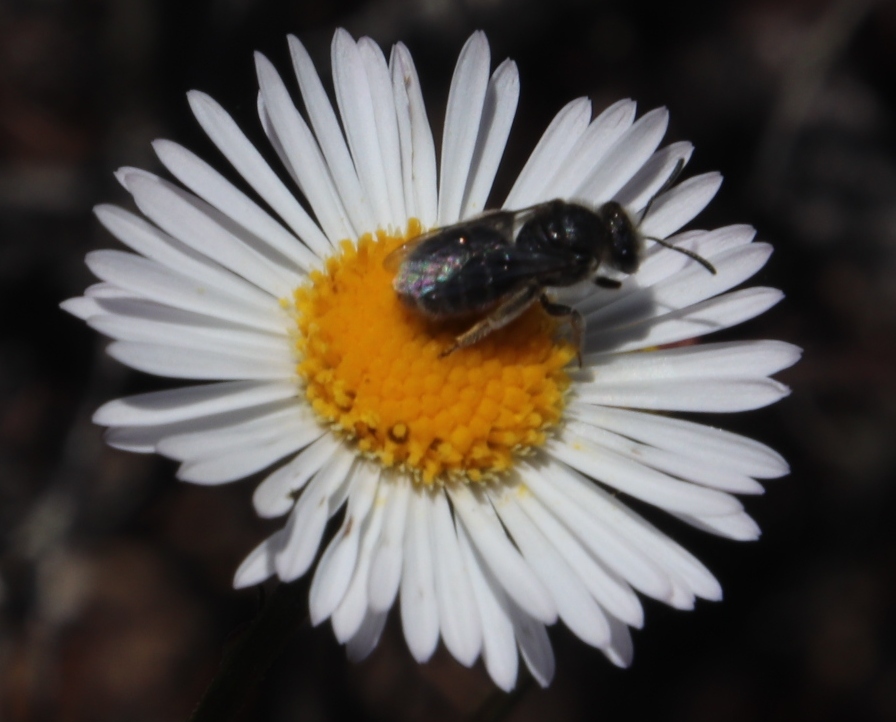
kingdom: Plantae
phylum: Tracheophyta
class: Magnoliopsida
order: Asterales
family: Asteraceae
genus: Erigeron
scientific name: Erigeron karvinskianus
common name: Mexican fleabane
